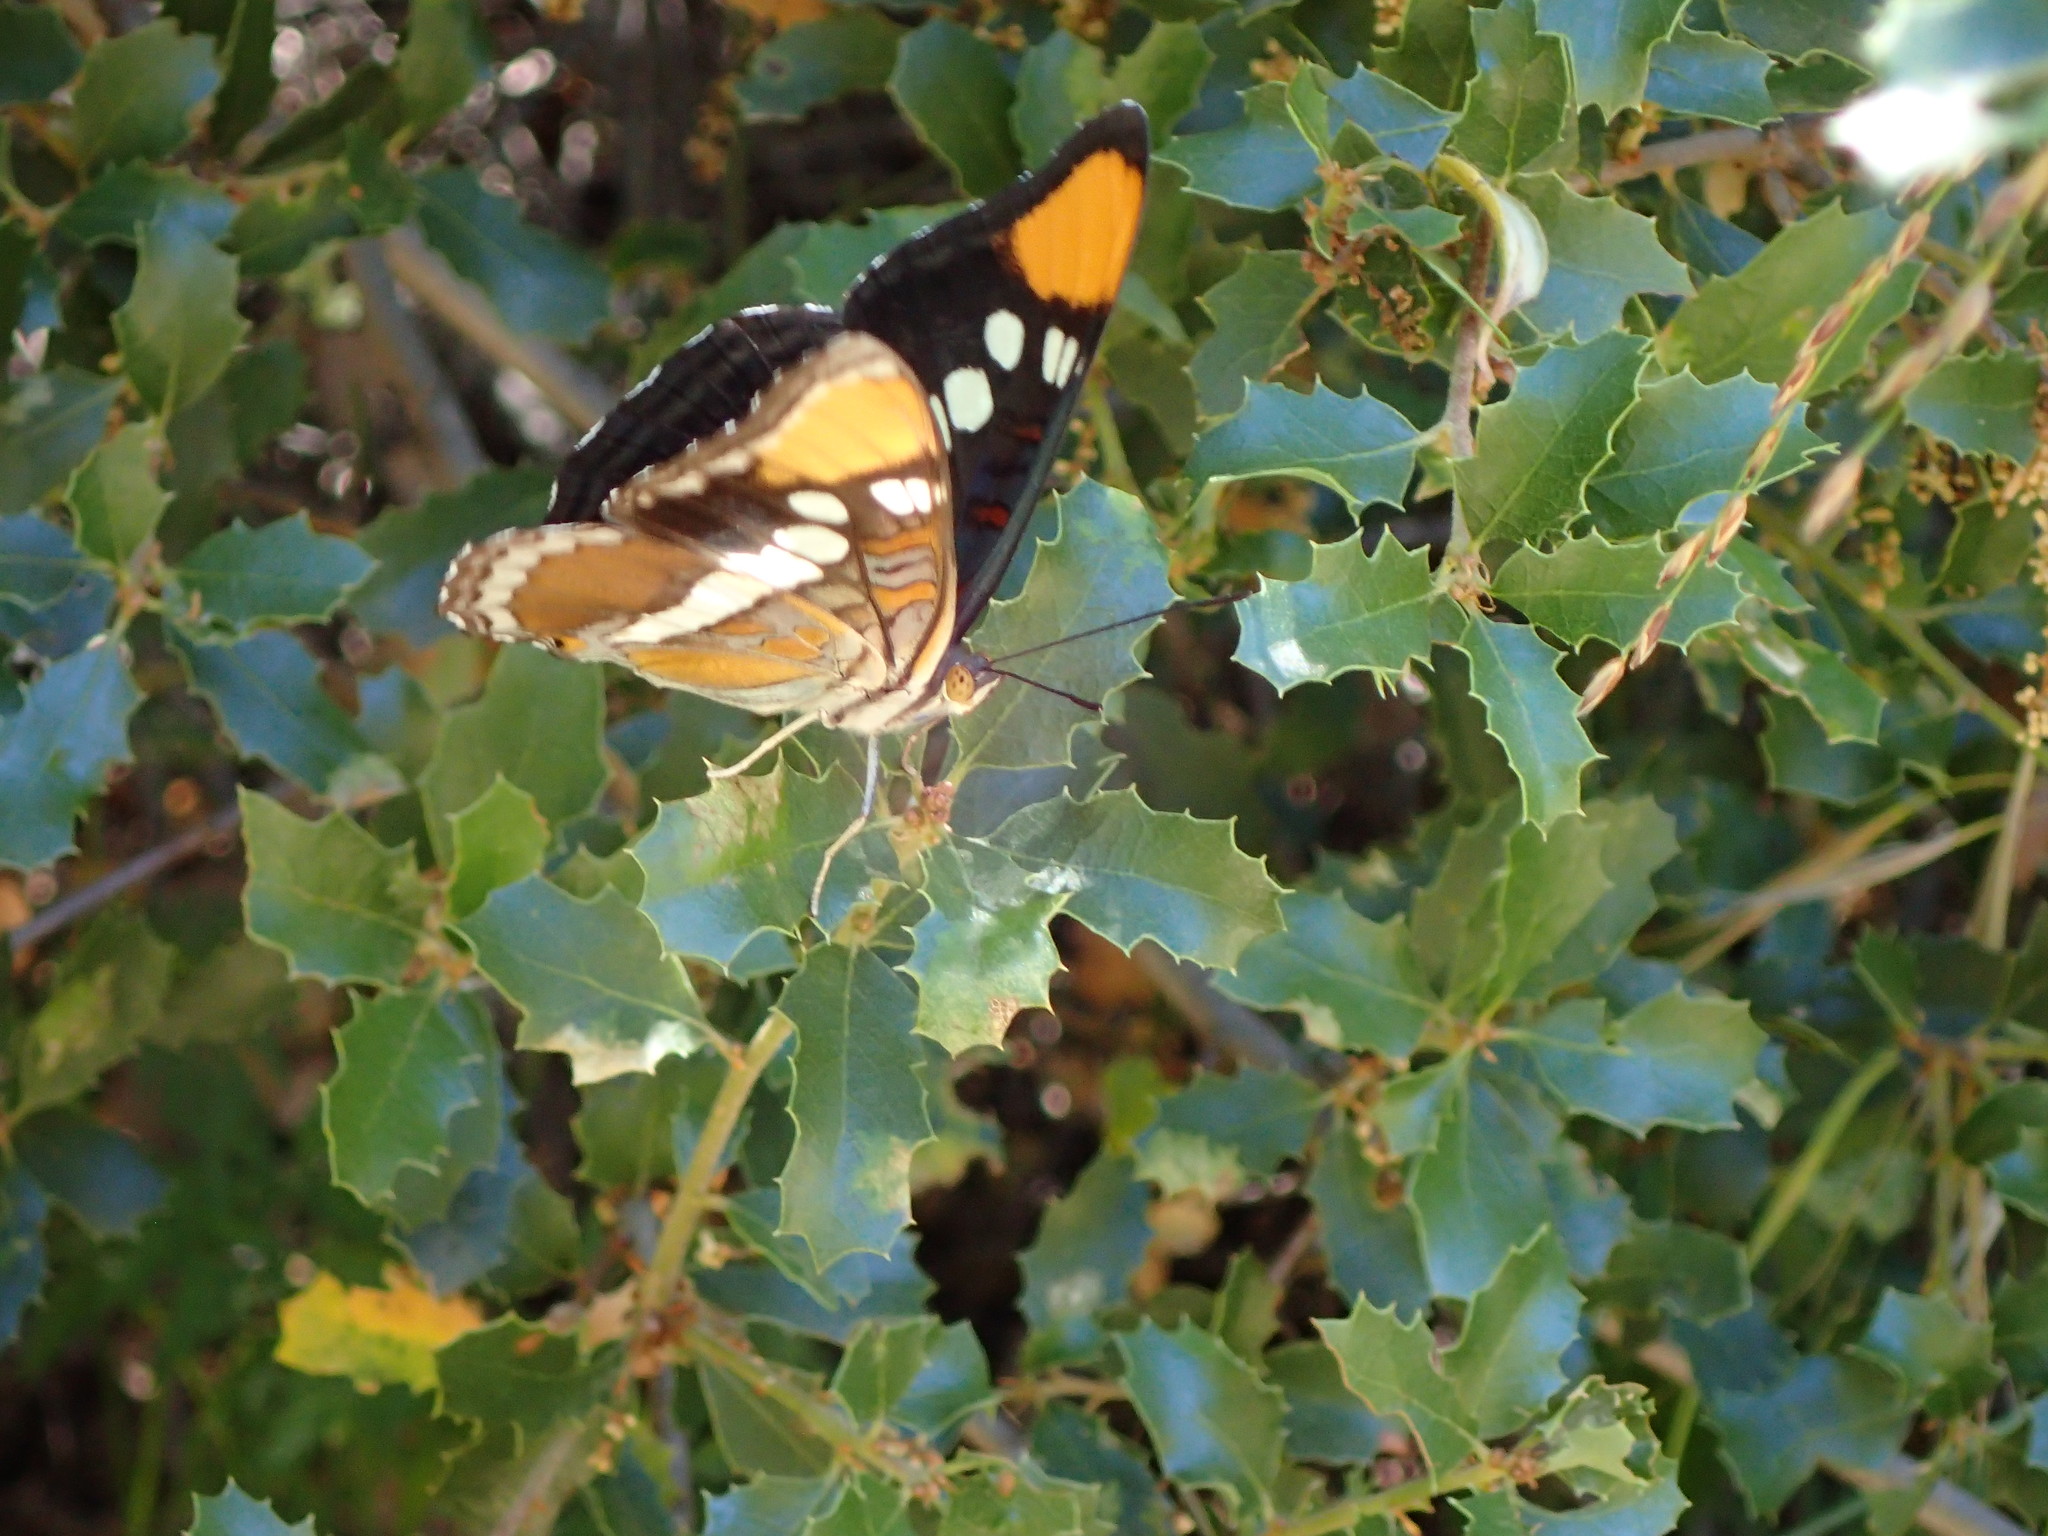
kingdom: Animalia
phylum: Arthropoda
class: Insecta
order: Lepidoptera
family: Nymphalidae
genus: Limenitis
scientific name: Limenitis bredowii
